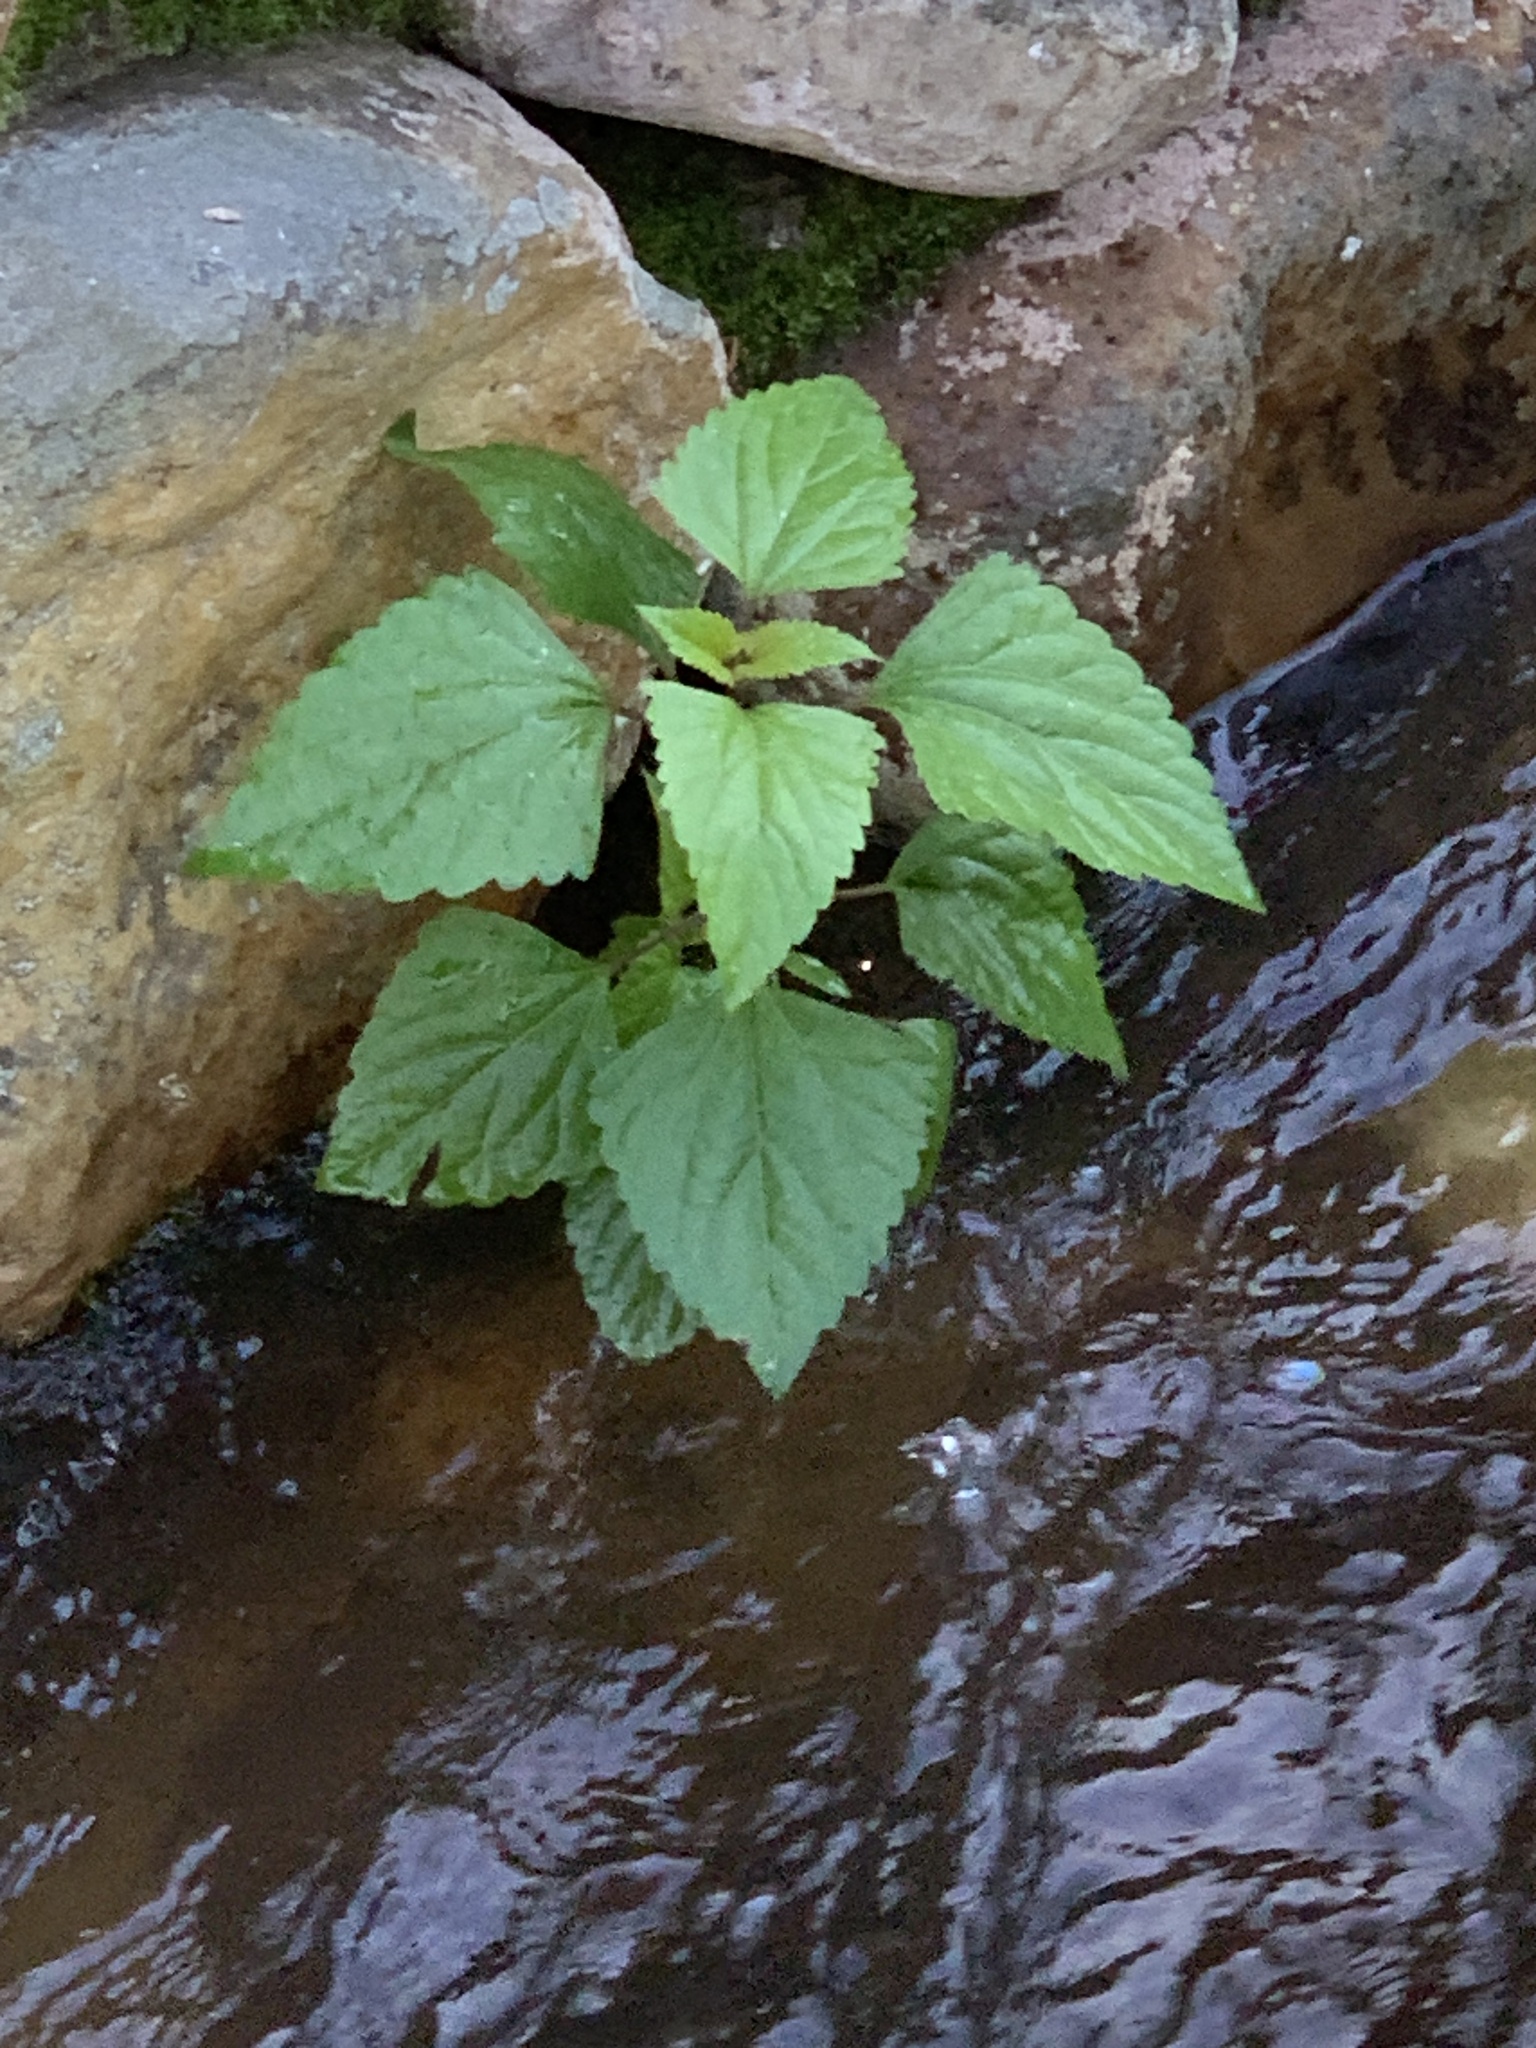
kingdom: Plantae
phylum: Tracheophyta
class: Magnoliopsida
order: Asterales
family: Asteraceae
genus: Ageratina
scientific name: Ageratina adenophora
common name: Sticky snakeroot
